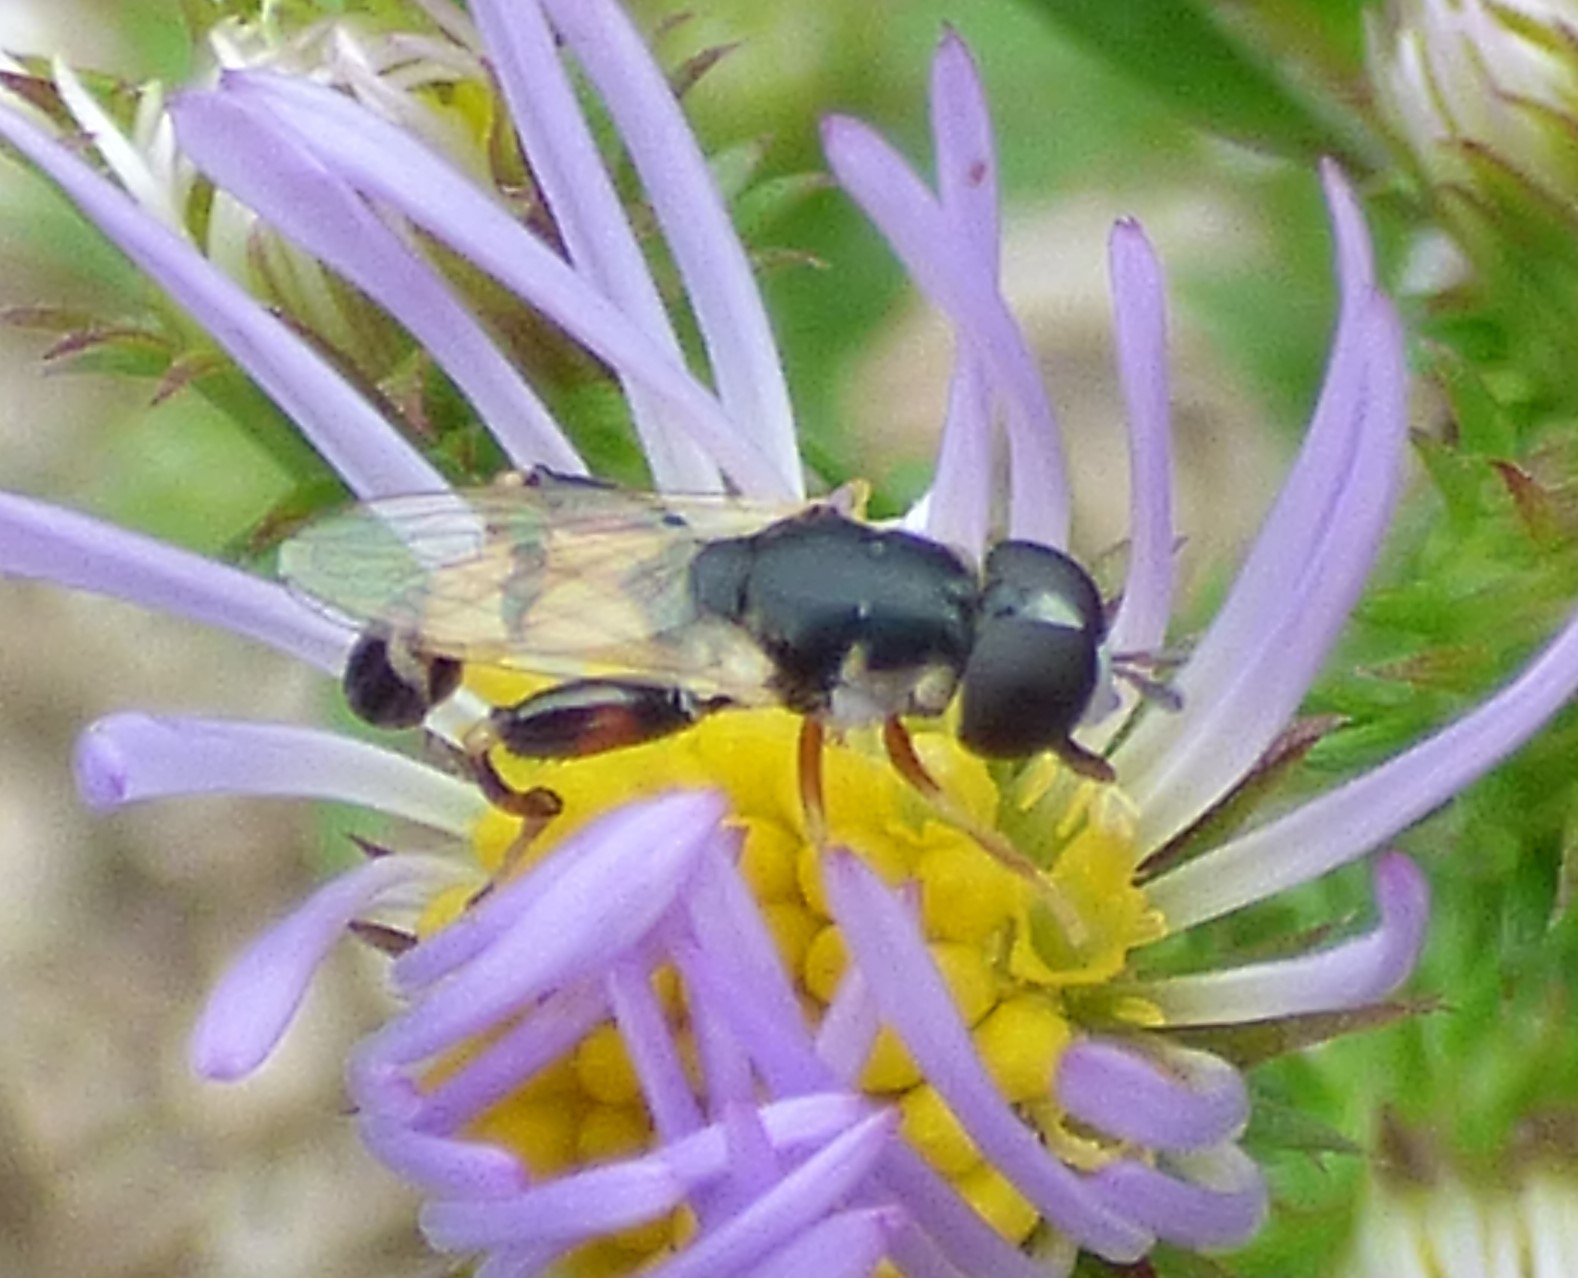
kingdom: Animalia
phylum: Arthropoda
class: Insecta
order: Diptera
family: Syrphidae
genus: Syritta
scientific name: Syritta flaviventris
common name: Syrphid fly
